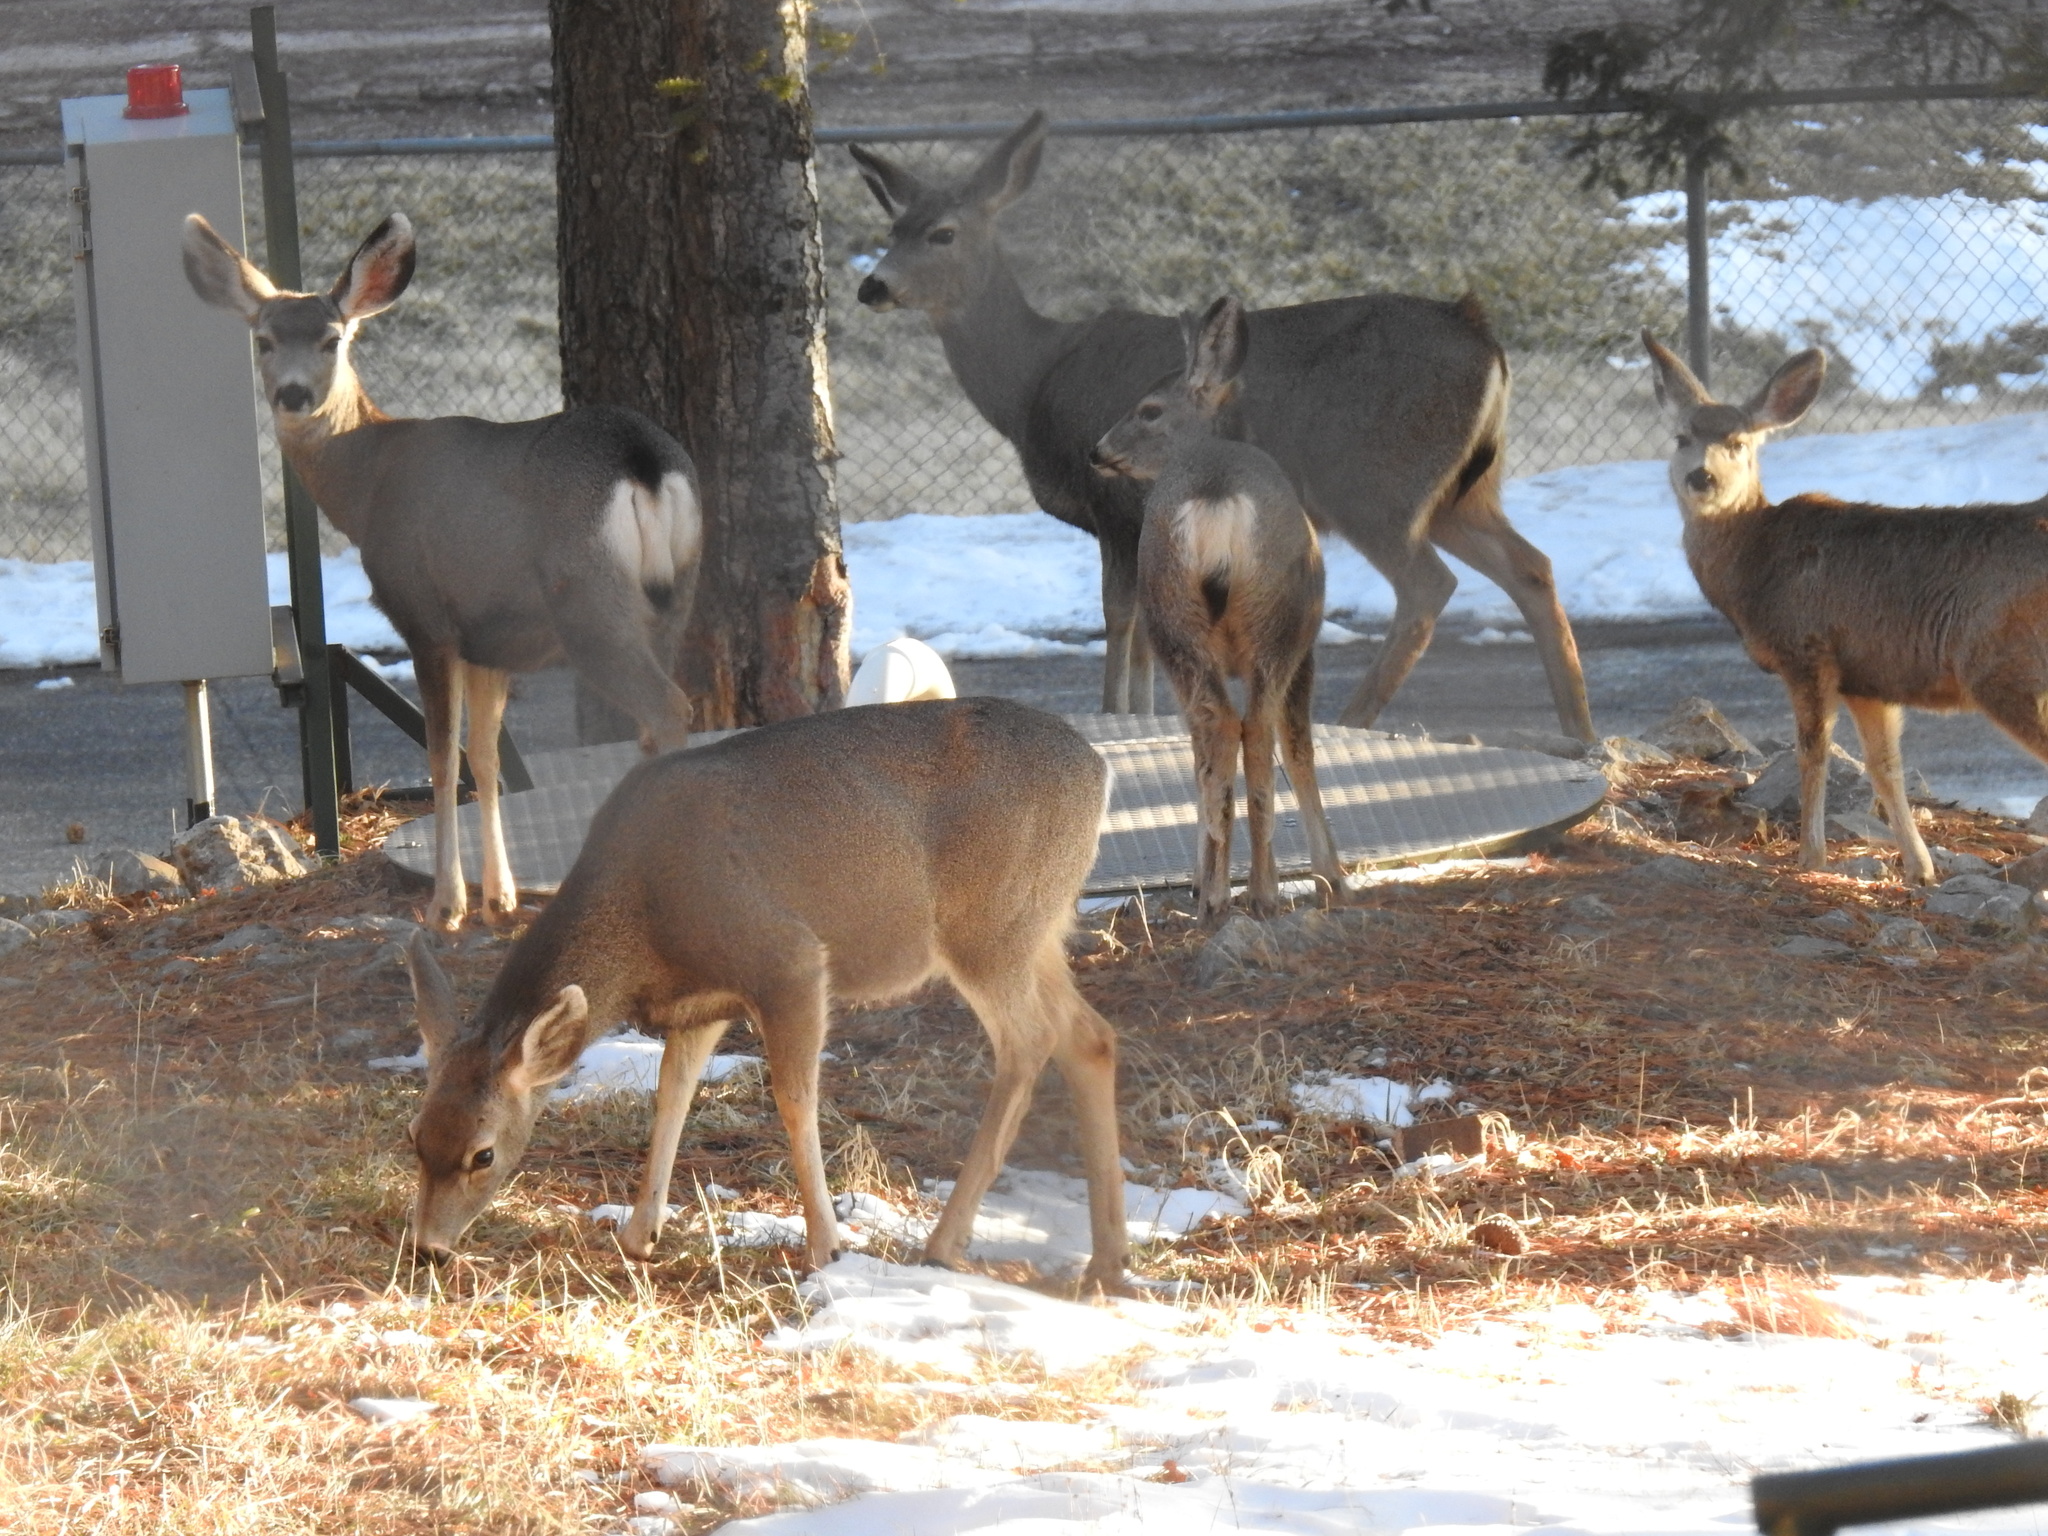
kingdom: Animalia
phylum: Chordata
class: Mammalia
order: Artiodactyla
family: Cervidae
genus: Odocoileus
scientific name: Odocoileus hemionus
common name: Mule deer
